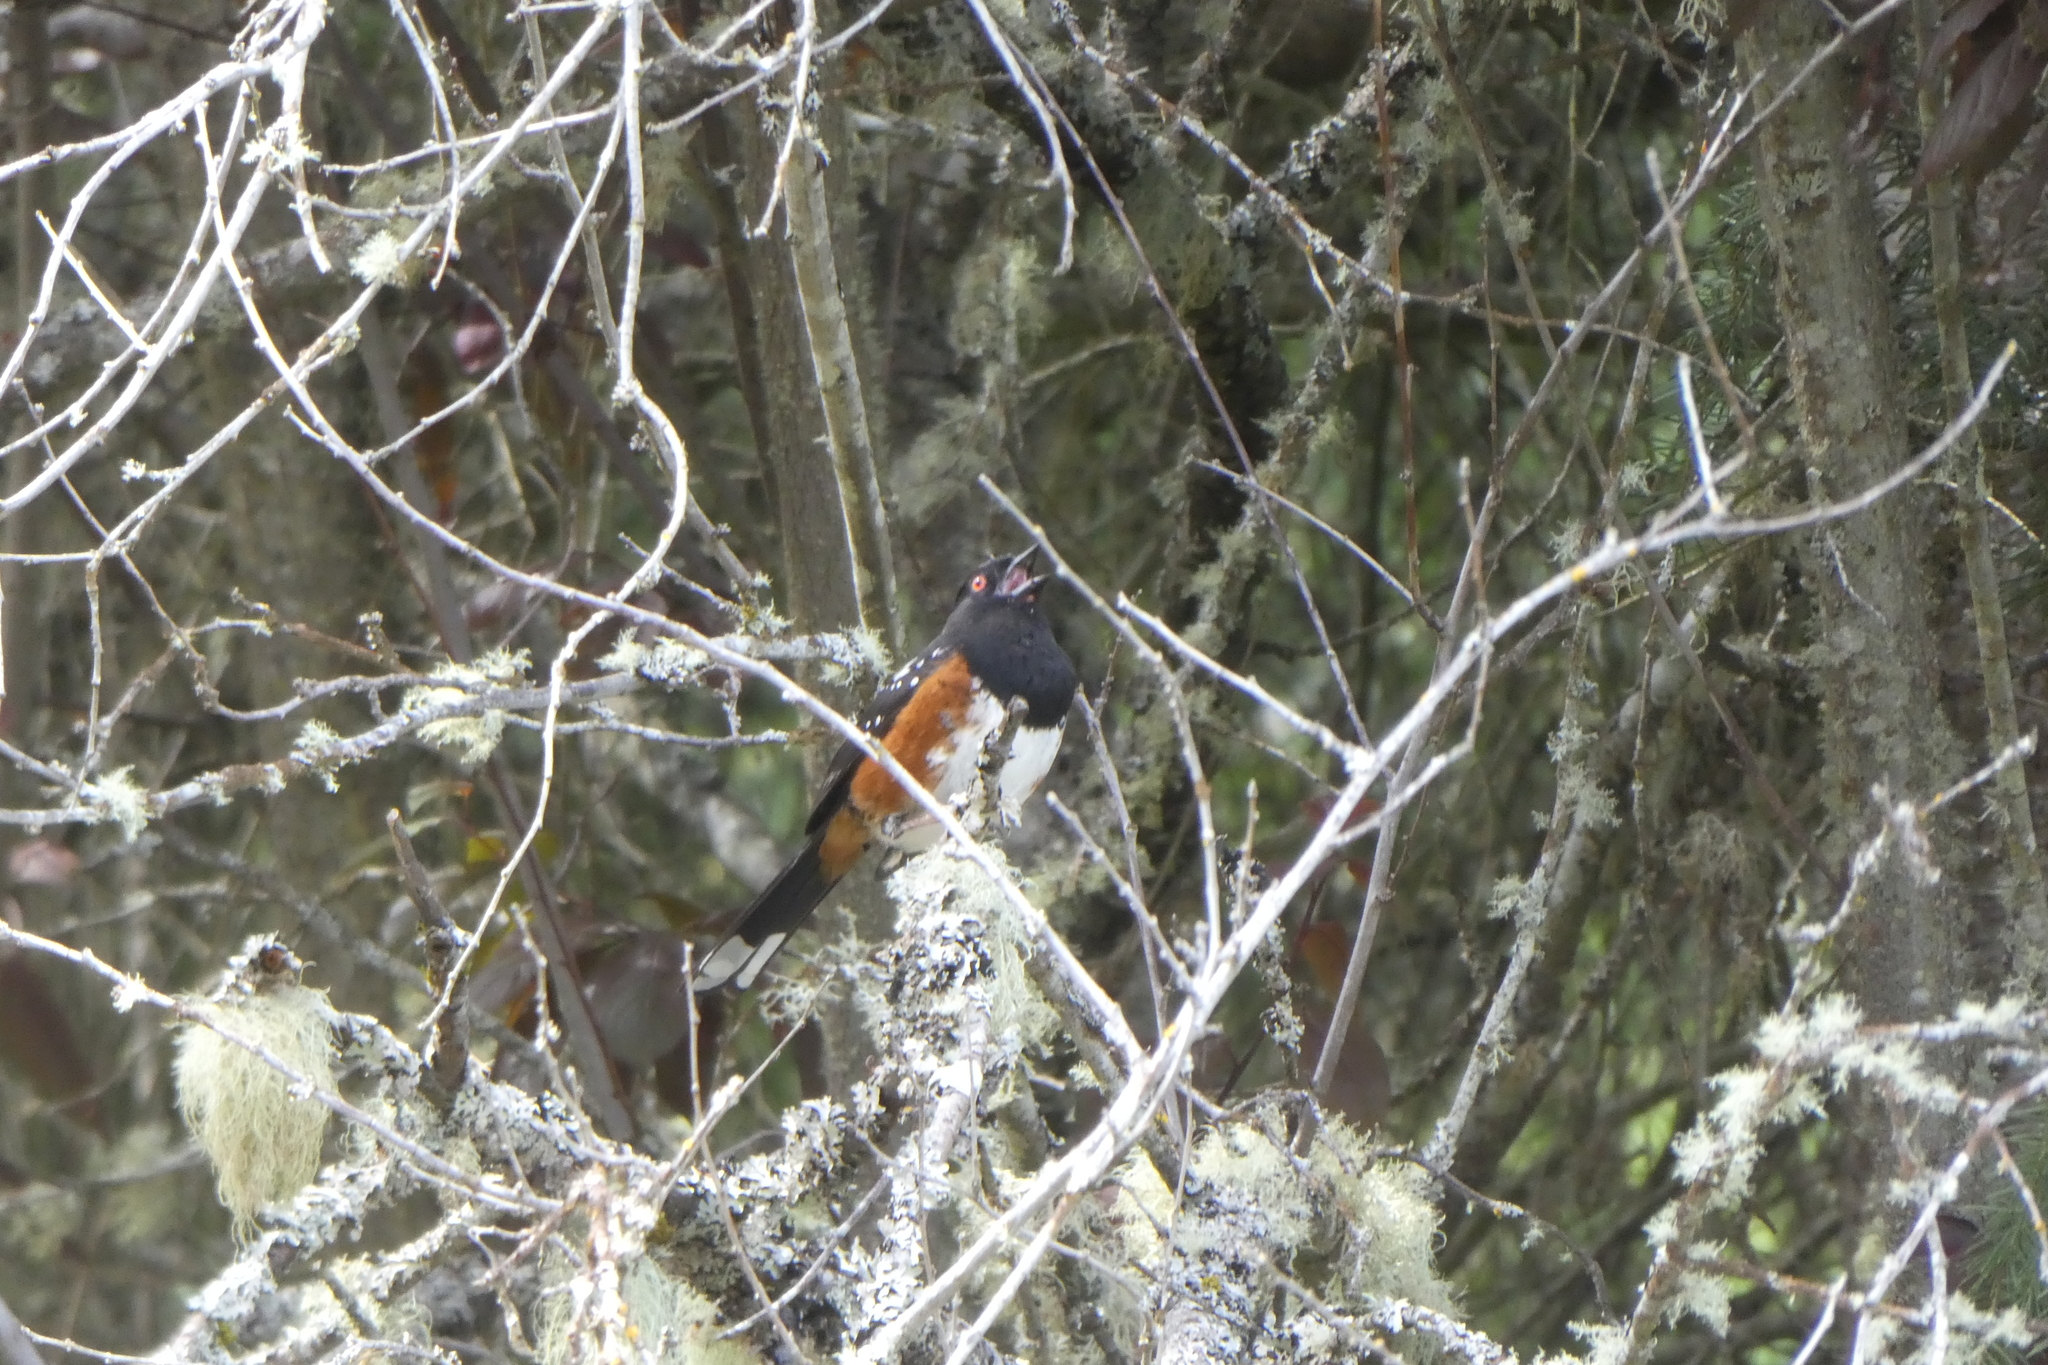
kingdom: Animalia
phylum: Chordata
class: Aves
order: Passeriformes
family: Passerellidae
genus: Pipilo
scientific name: Pipilo maculatus
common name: Spotted towhee
